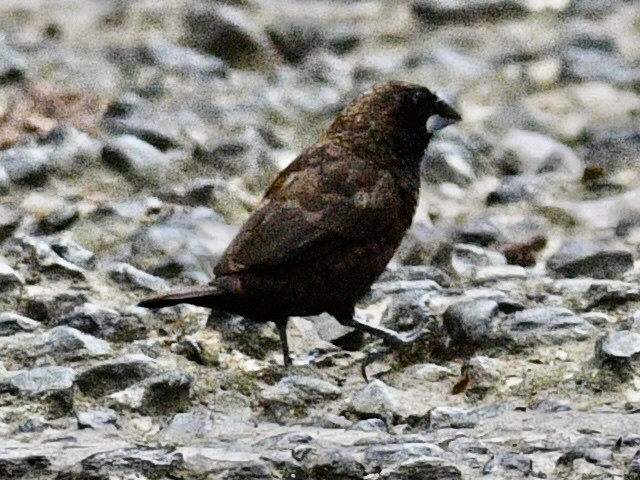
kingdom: Animalia
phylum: Chordata
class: Aves
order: Passeriformes
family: Estrildidae
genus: Lonchura
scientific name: Lonchura fuscans
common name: Dusky munia
